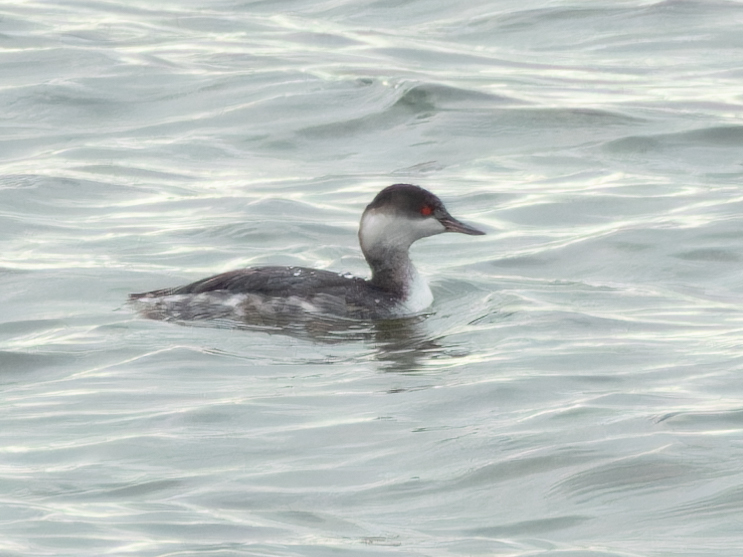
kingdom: Animalia
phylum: Chordata
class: Aves
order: Podicipediformes
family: Podicipedidae
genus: Podiceps
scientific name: Podiceps nigricollis
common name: Black-necked grebe
